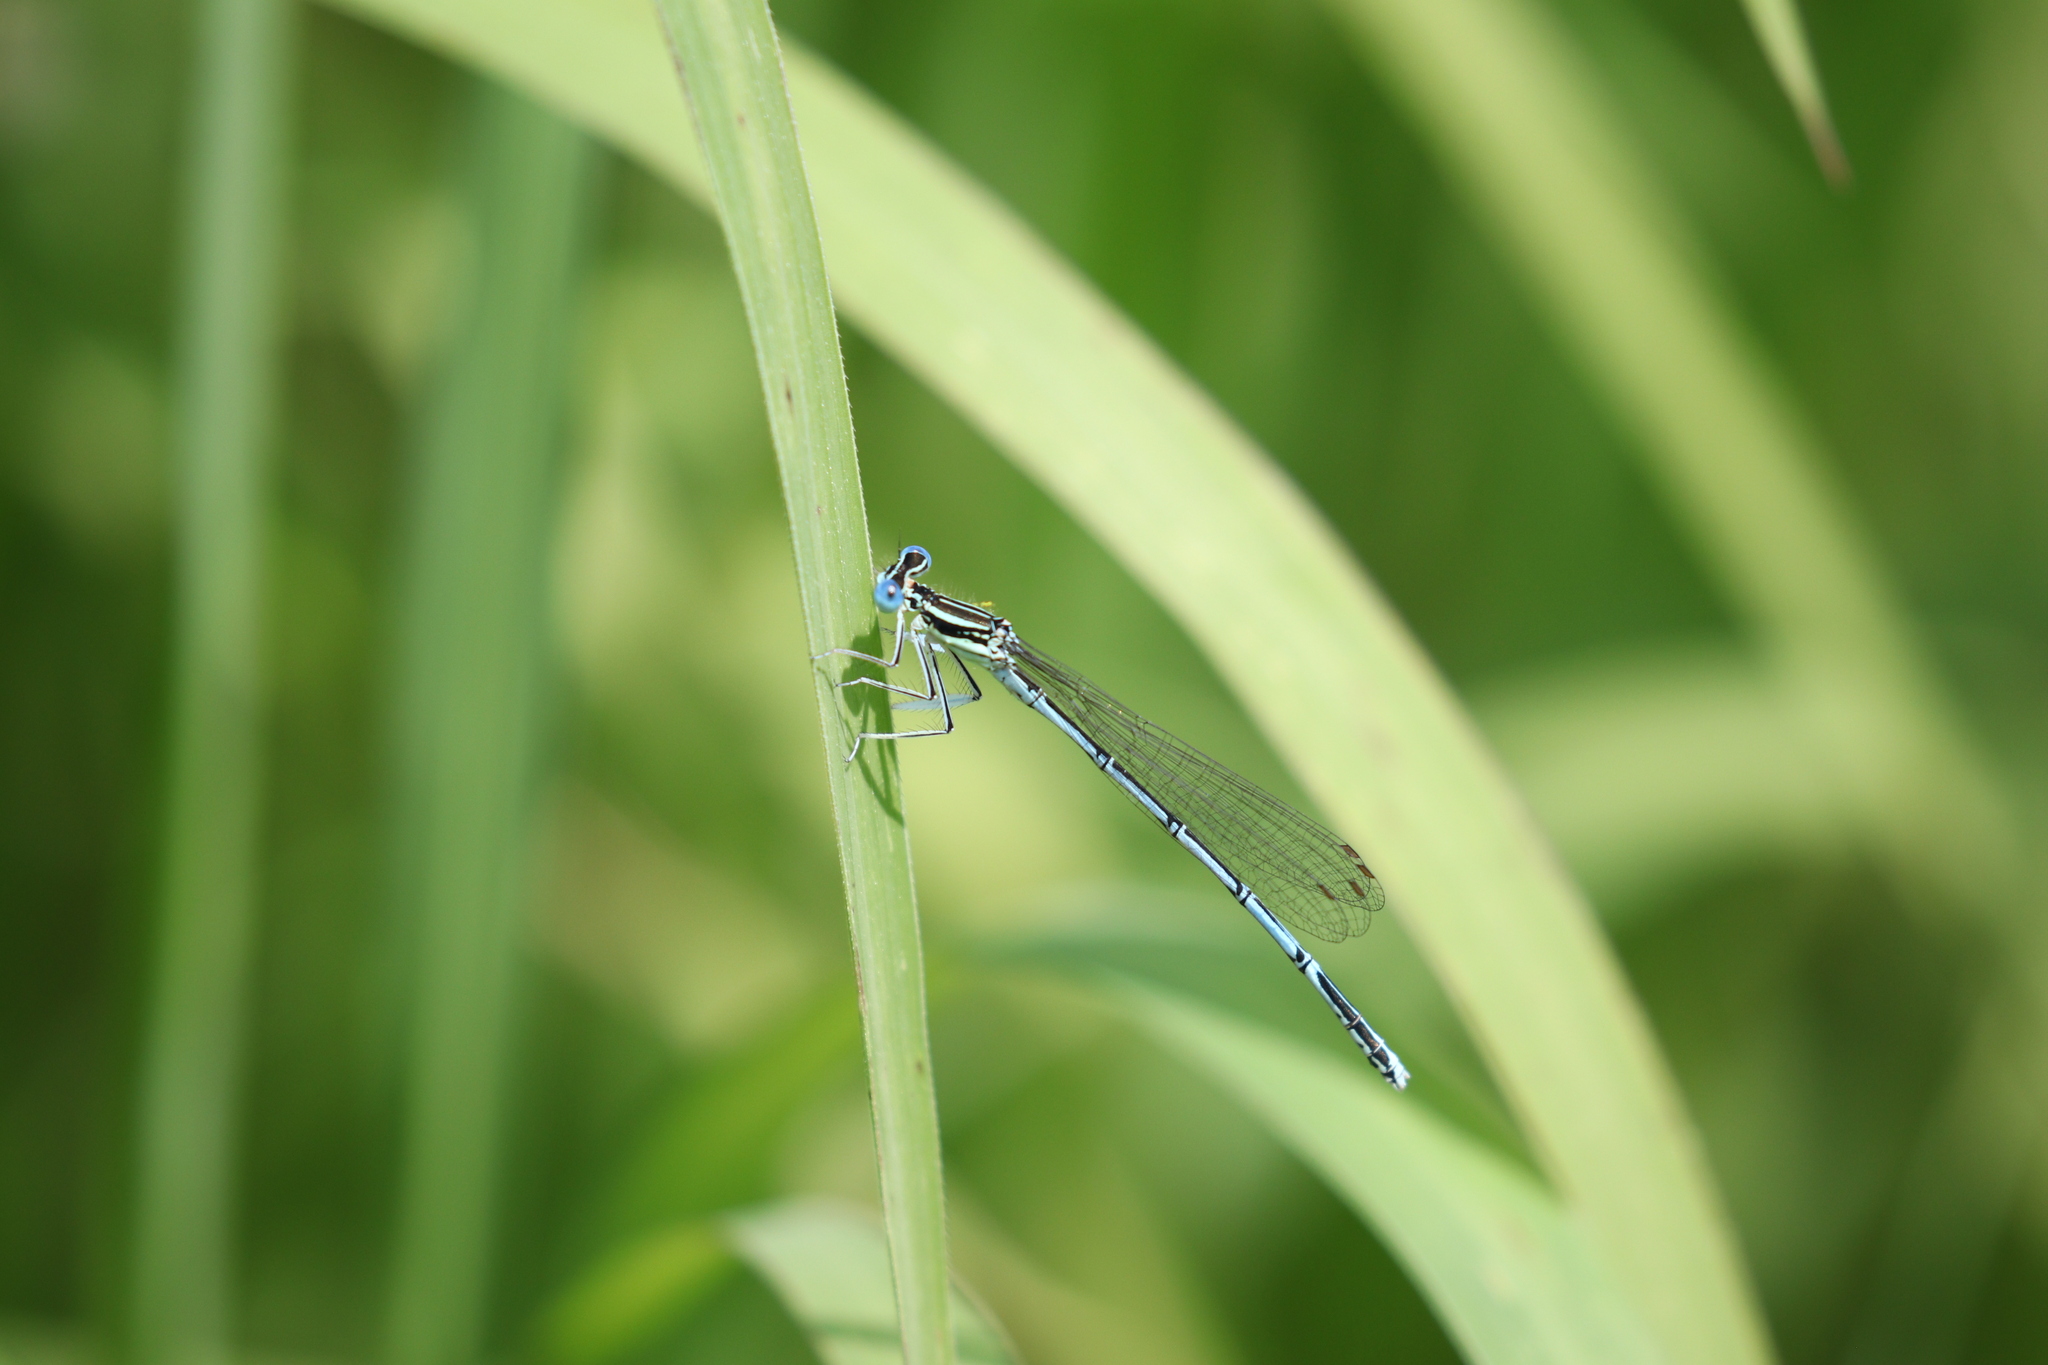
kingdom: Animalia
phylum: Arthropoda
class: Insecta
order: Odonata
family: Platycnemididae
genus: Platycnemis
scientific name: Platycnemis pennipes
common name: White-legged damselfly
